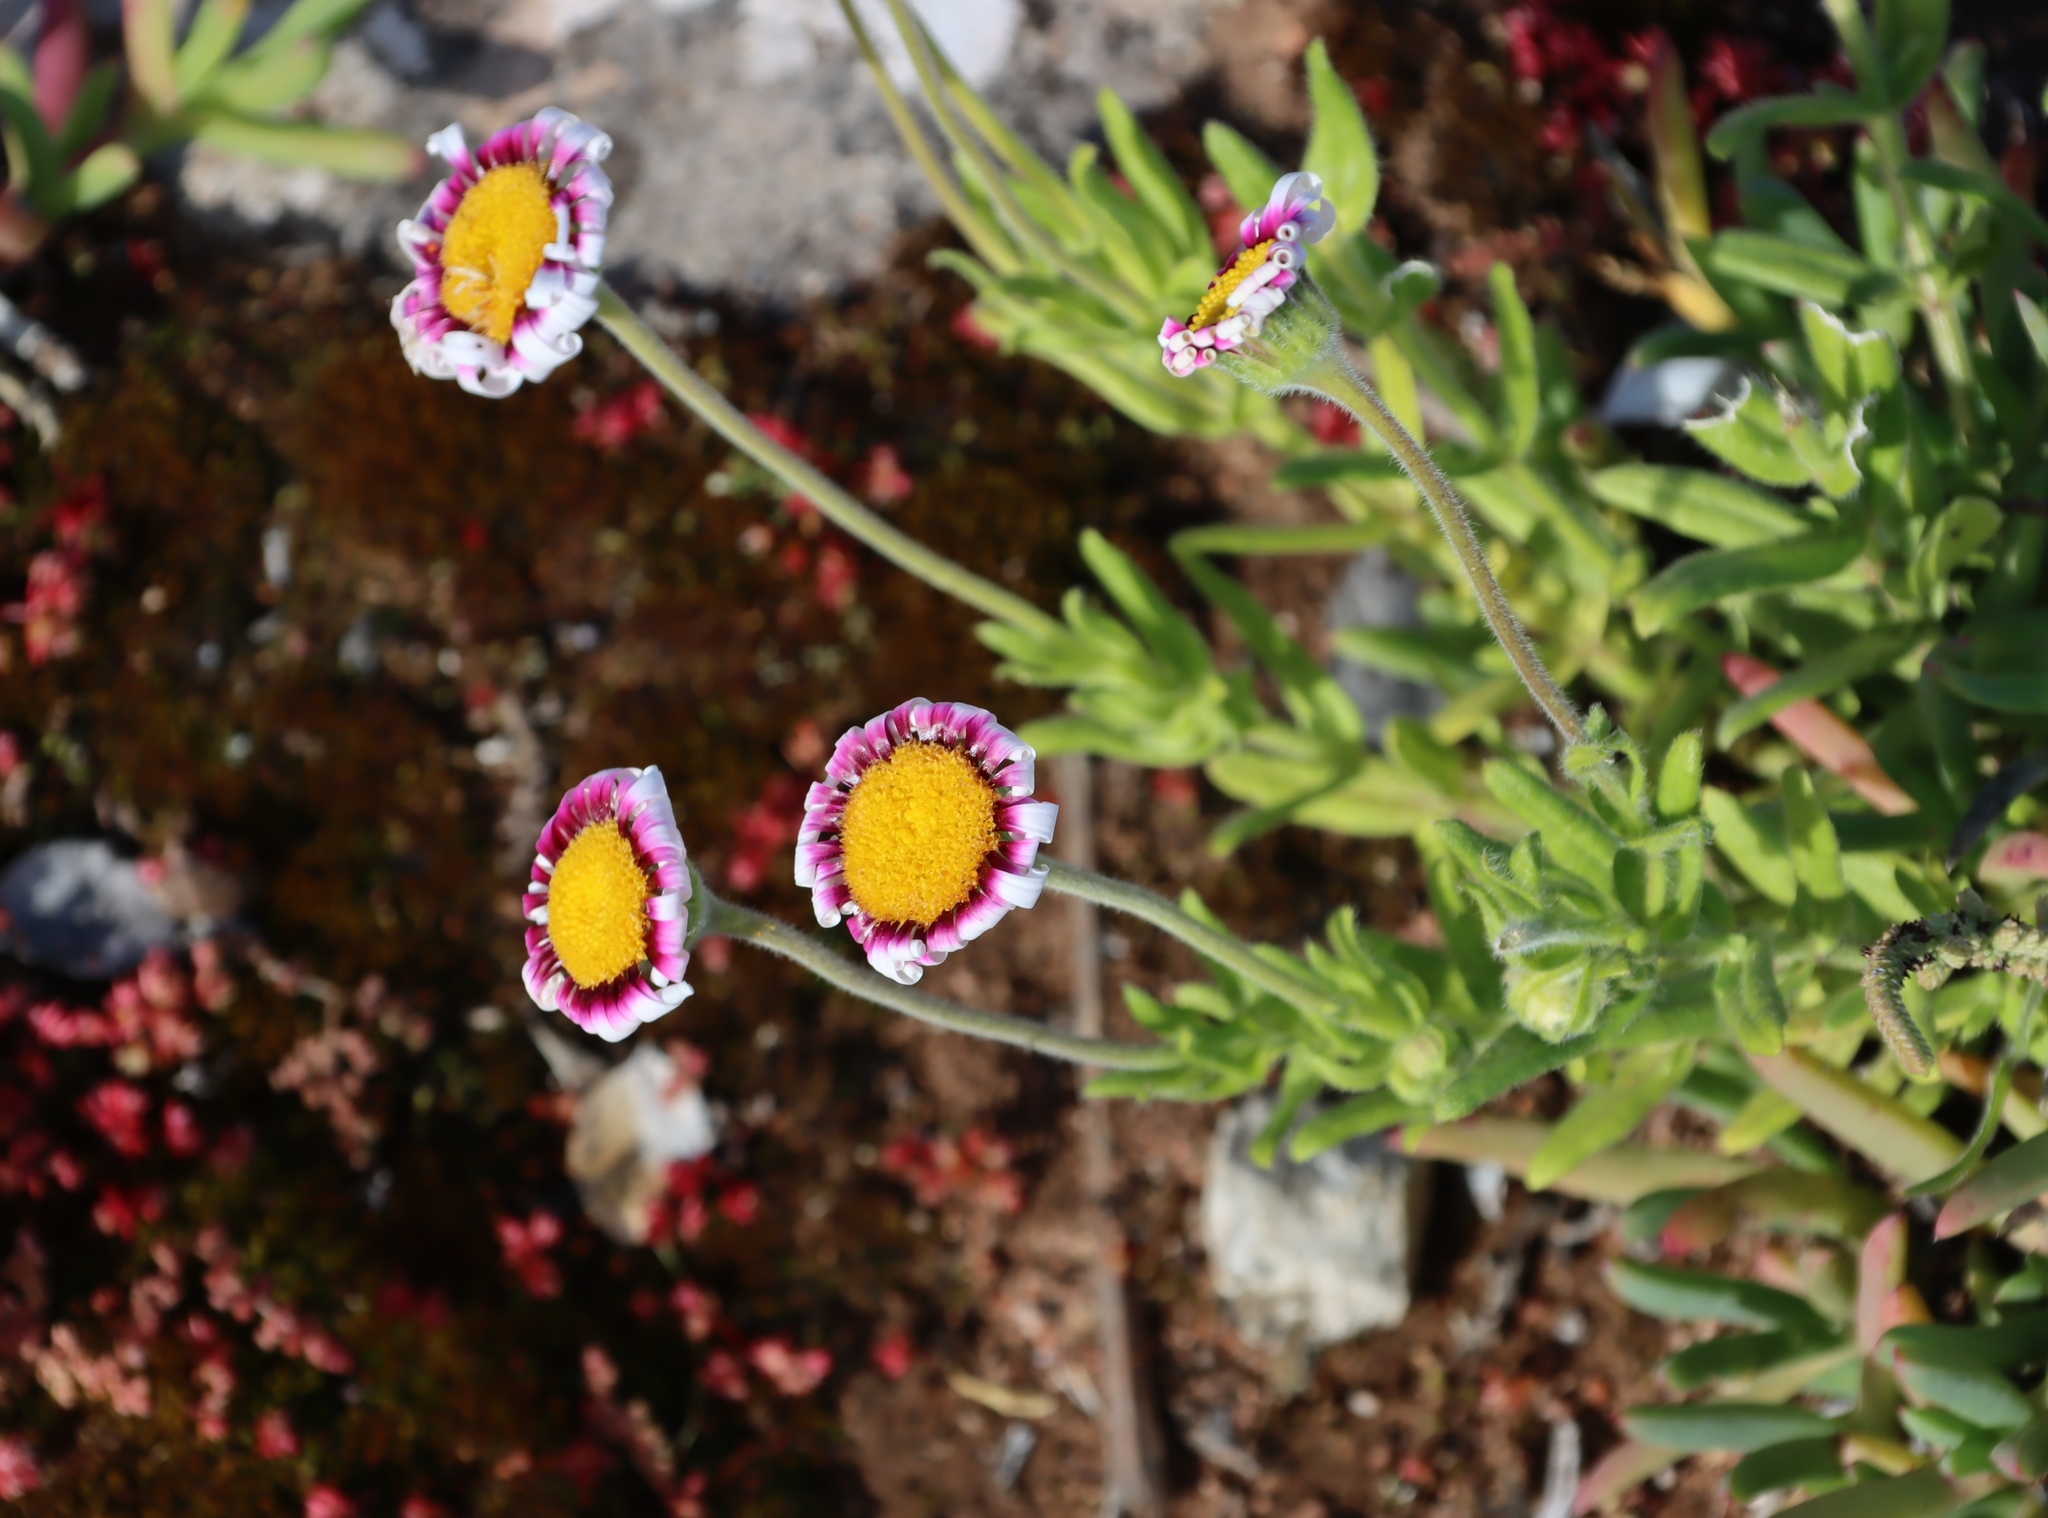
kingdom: Plantae
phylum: Tracheophyta
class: Magnoliopsida
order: Asterales
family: Asteraceae
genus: Felicia
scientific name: Felicia elongata
